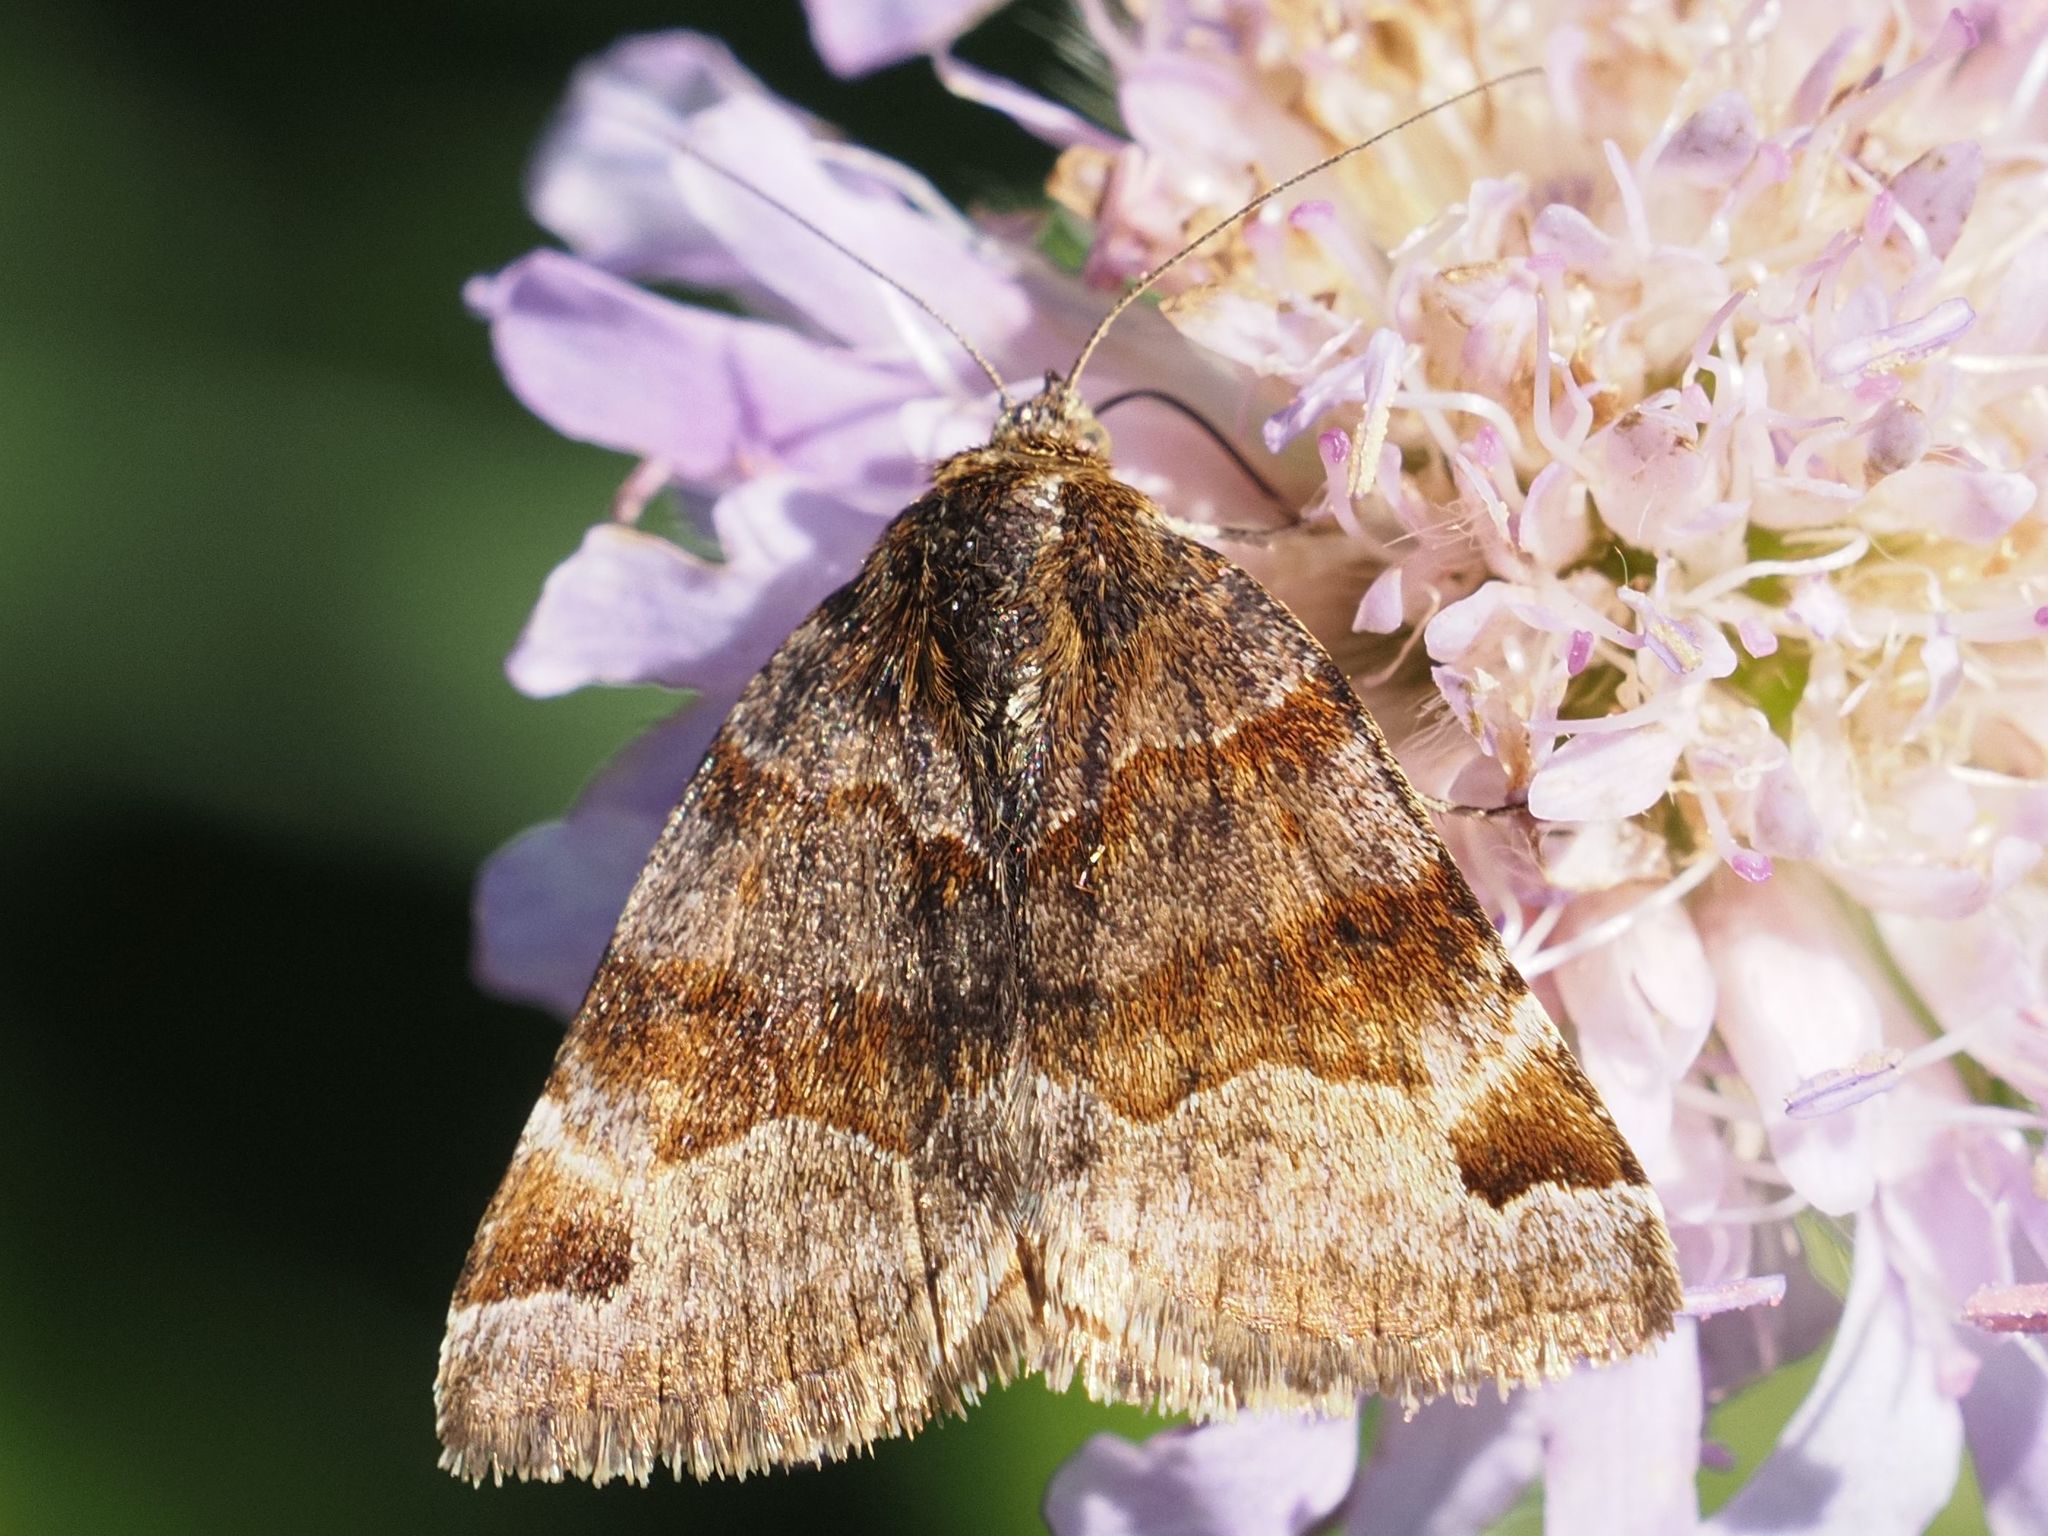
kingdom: Animalia
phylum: Arthropoda
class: Insecta
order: Lepidoptera
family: Erebidae
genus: Euclidia
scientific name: Euclidia glyphica
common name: Burnet companion
